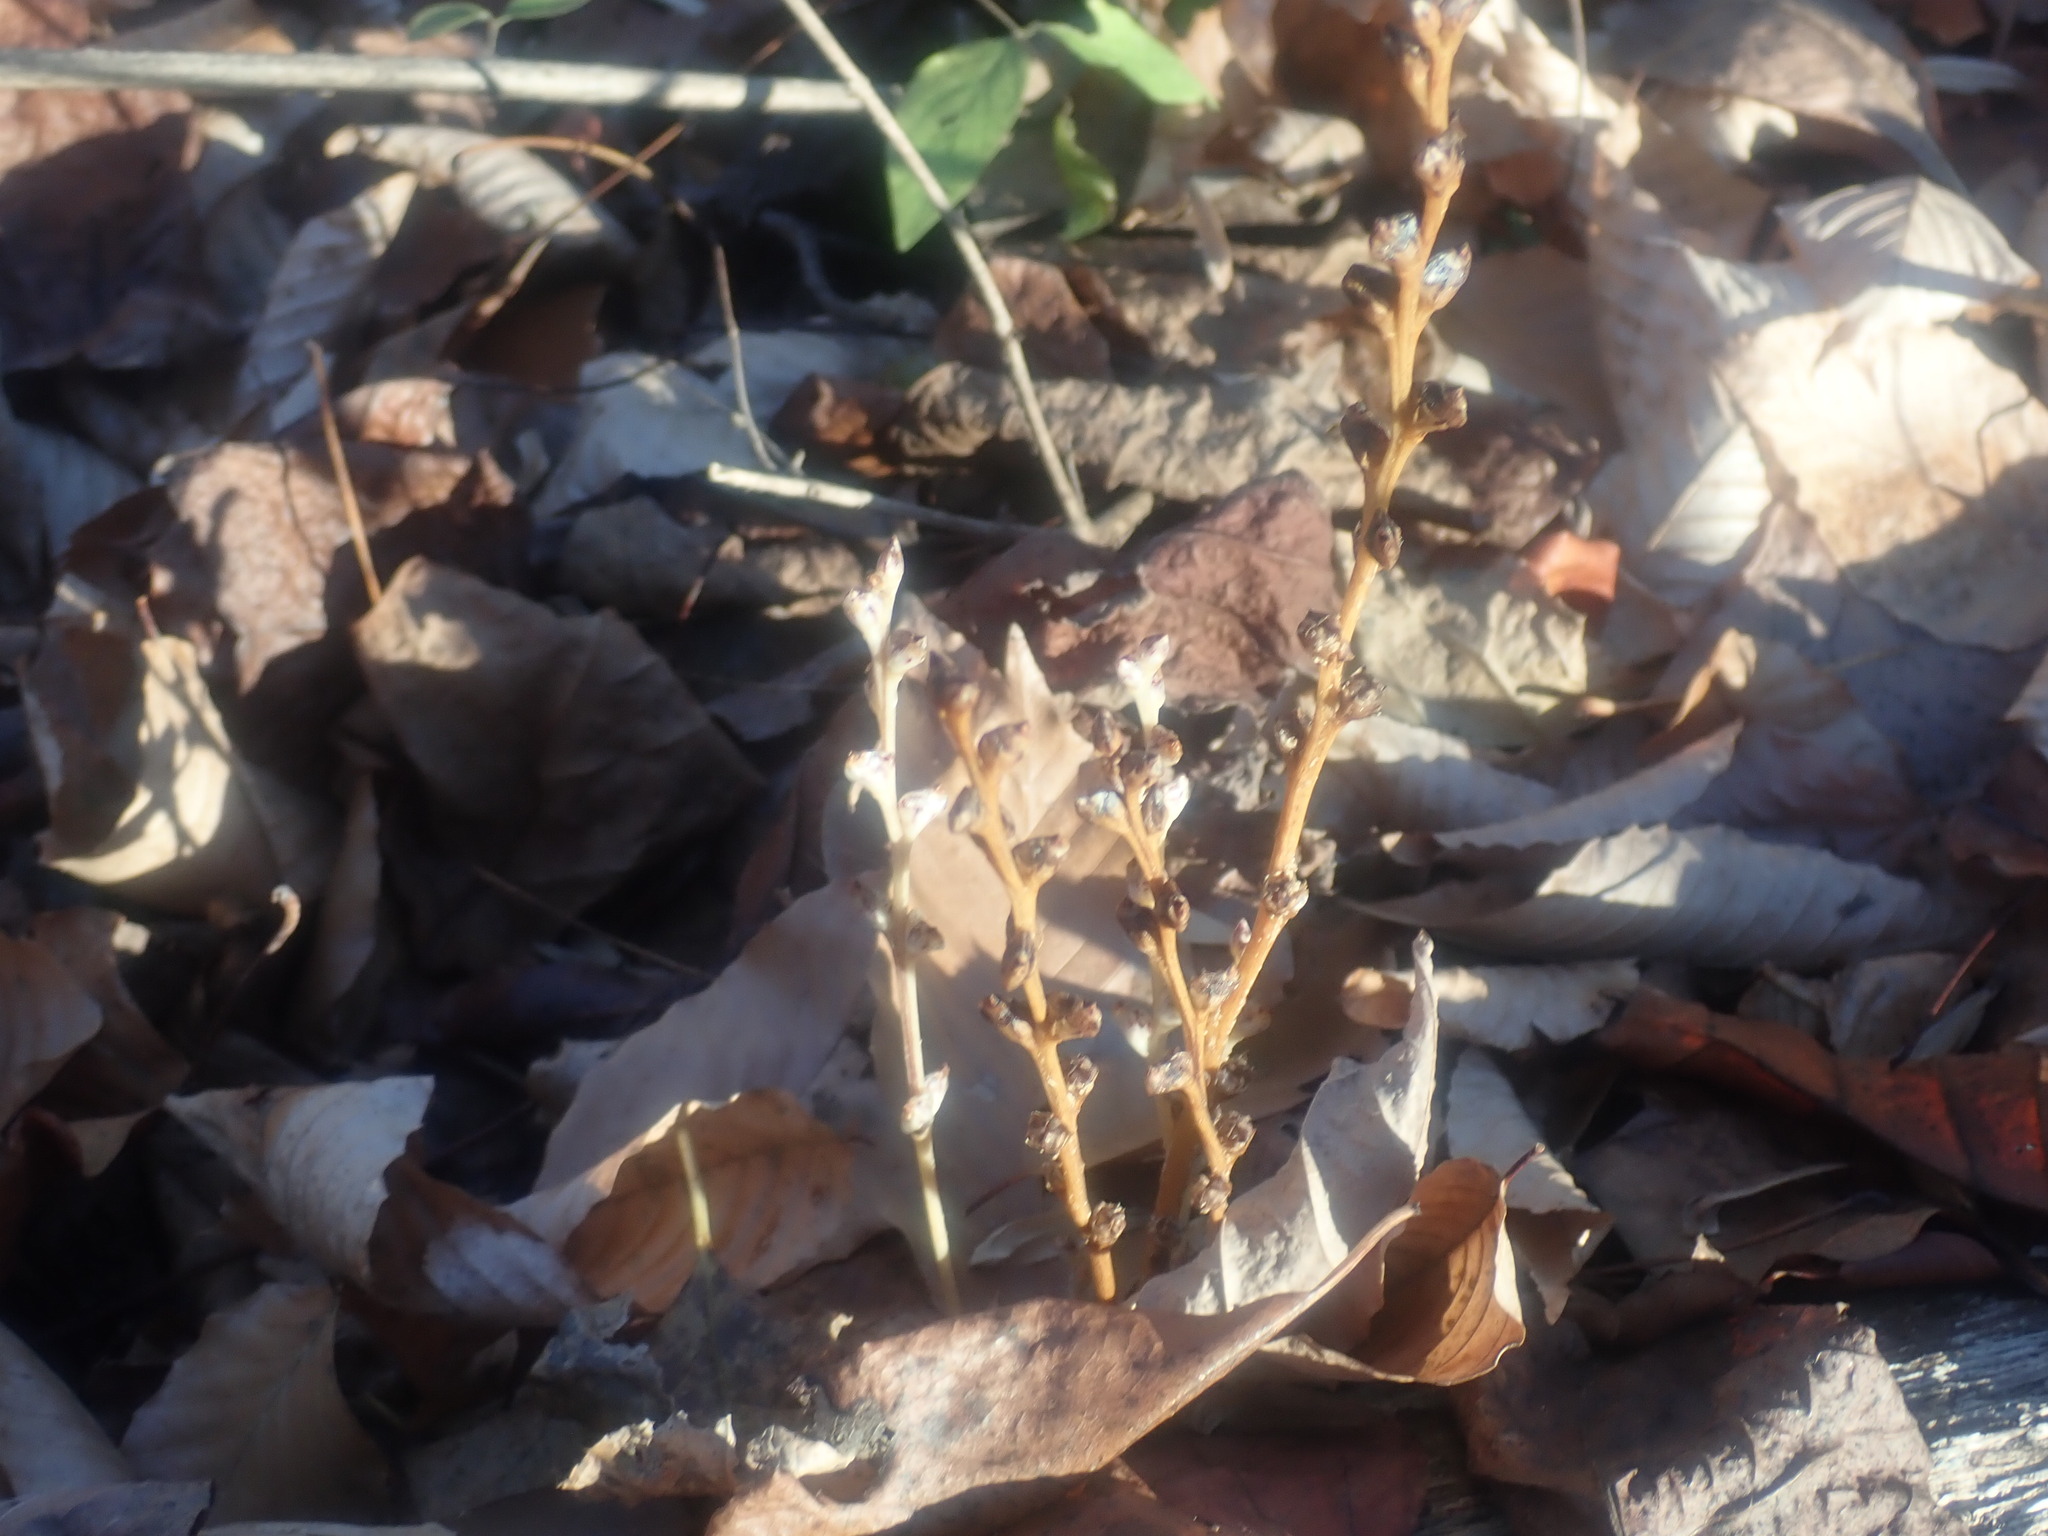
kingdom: Plantae
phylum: Tracheophyta
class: Magnoliopsida
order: Lamiales
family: Orobanchaceae
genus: Epifagus
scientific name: Epifagus virginiana
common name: Beechdrops
